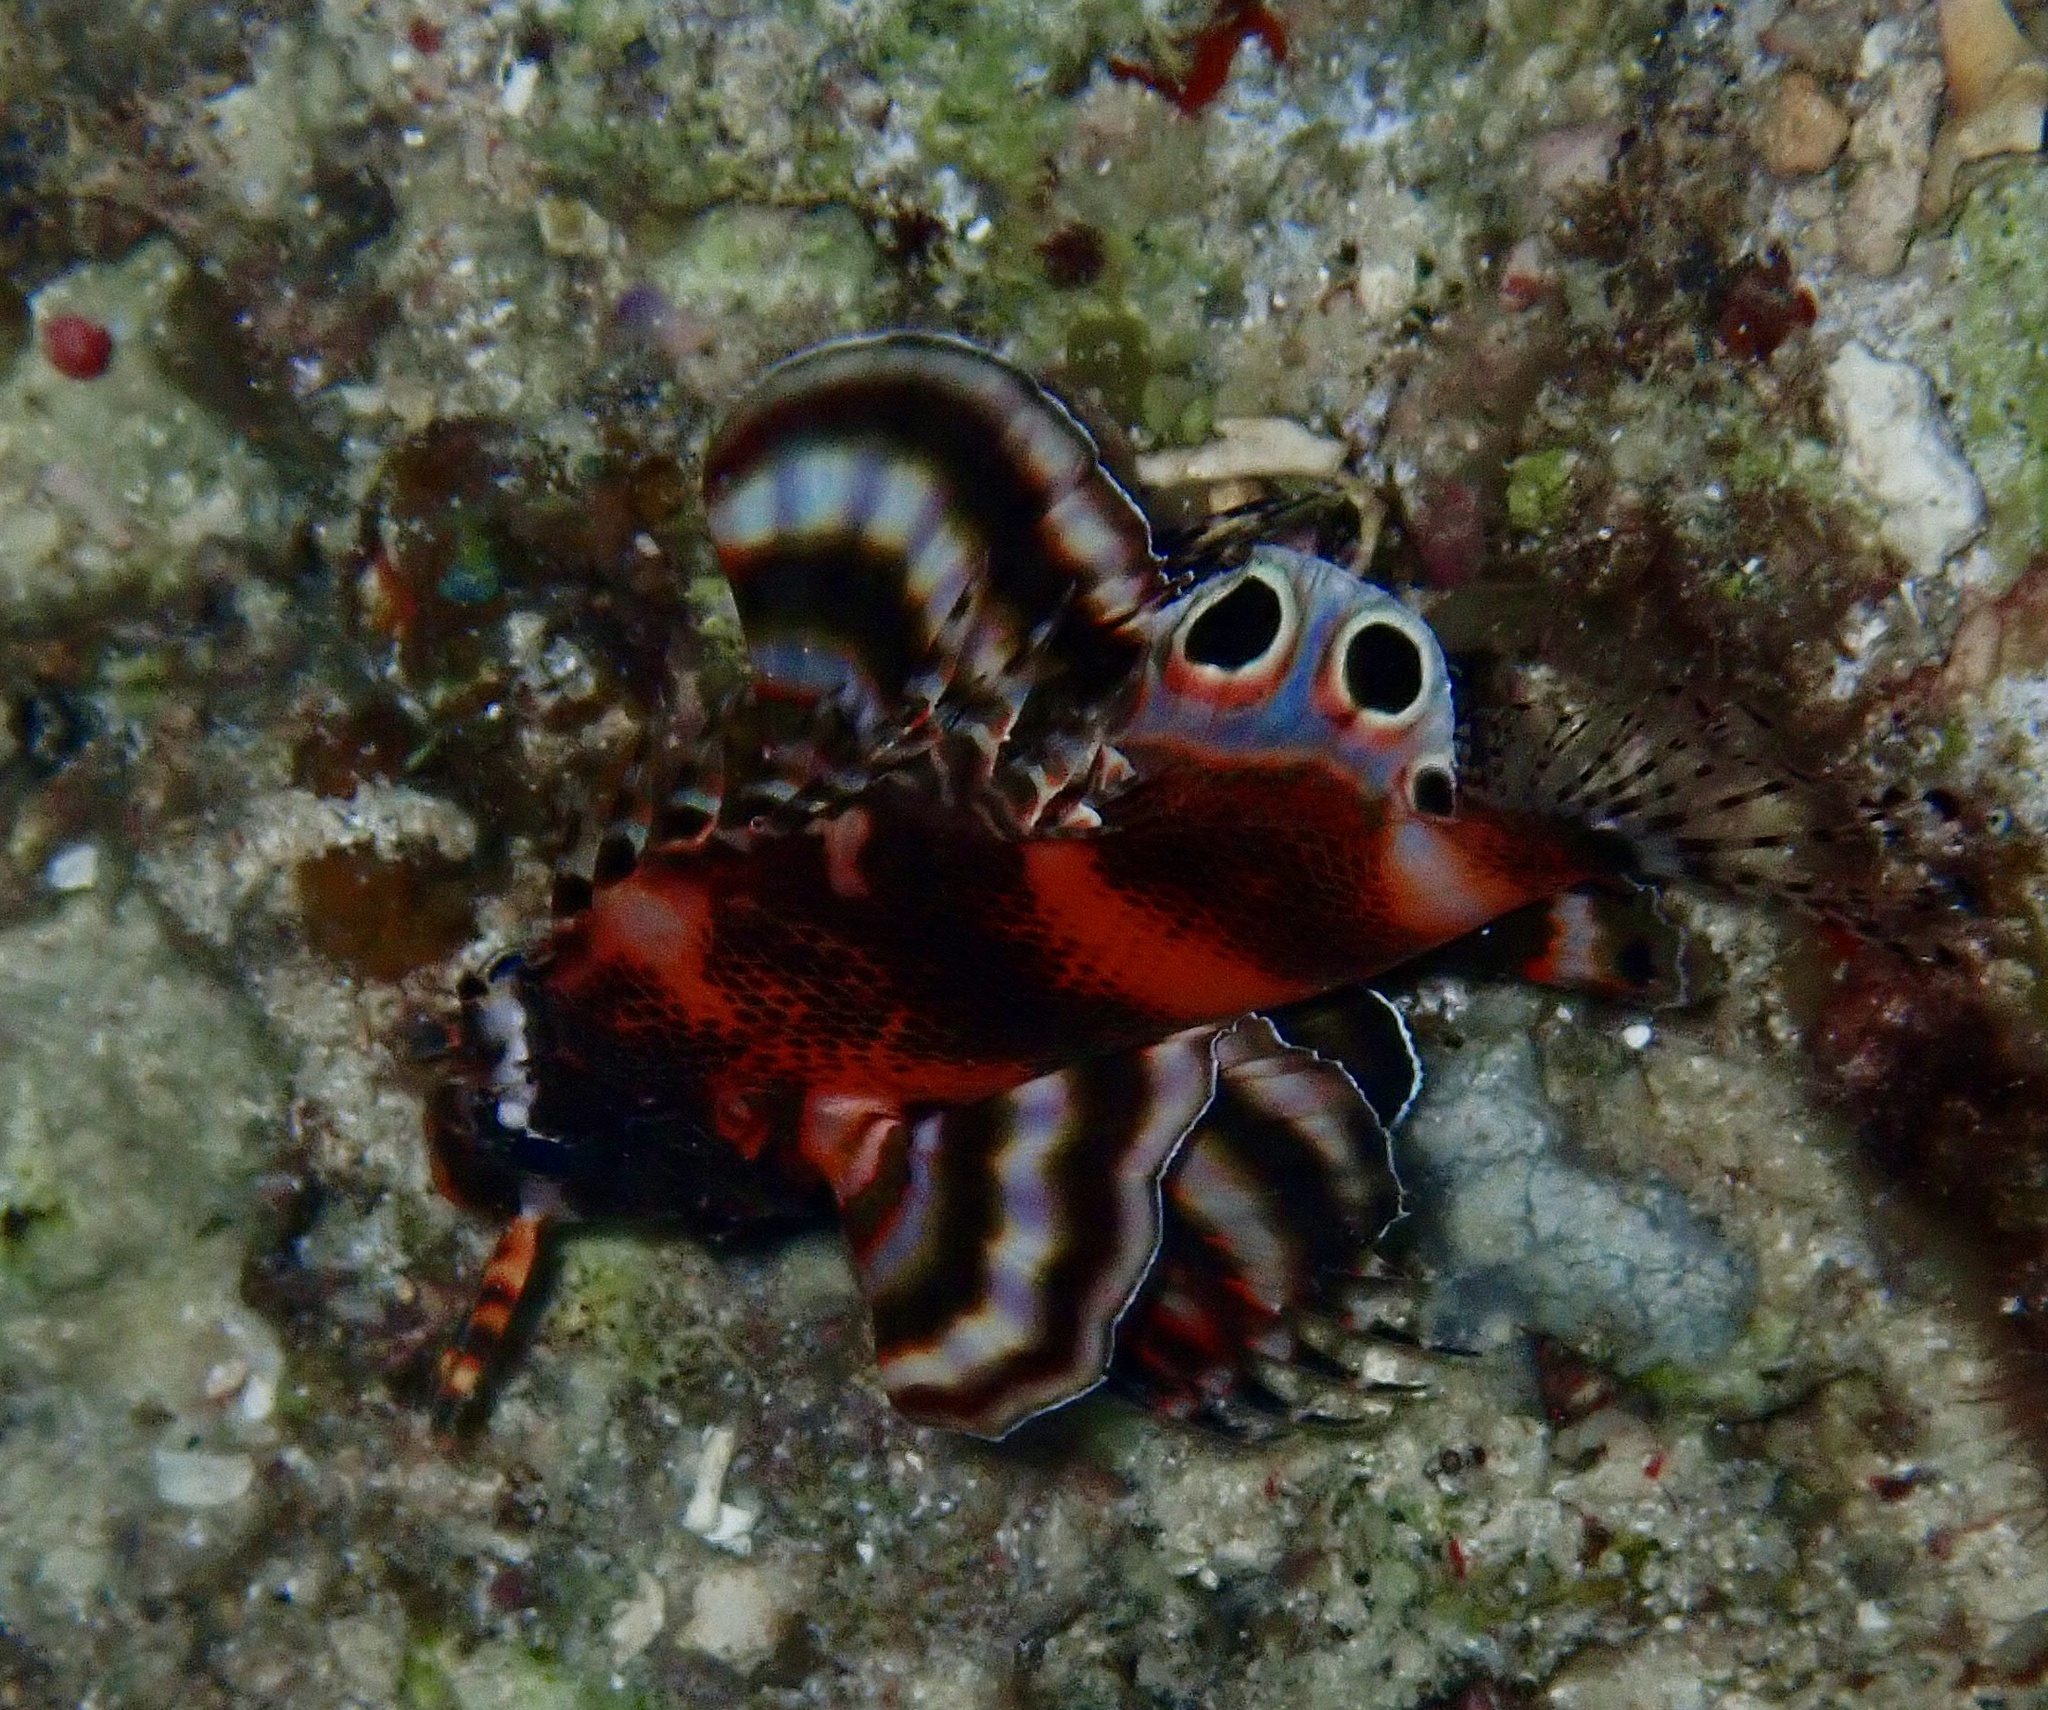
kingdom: Animalia
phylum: Chordata
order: Scorpaeniformes
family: Scorpaenidae
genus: Dendrochirus
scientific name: Dendrochirus biocellatus
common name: Twinspot lionfish
